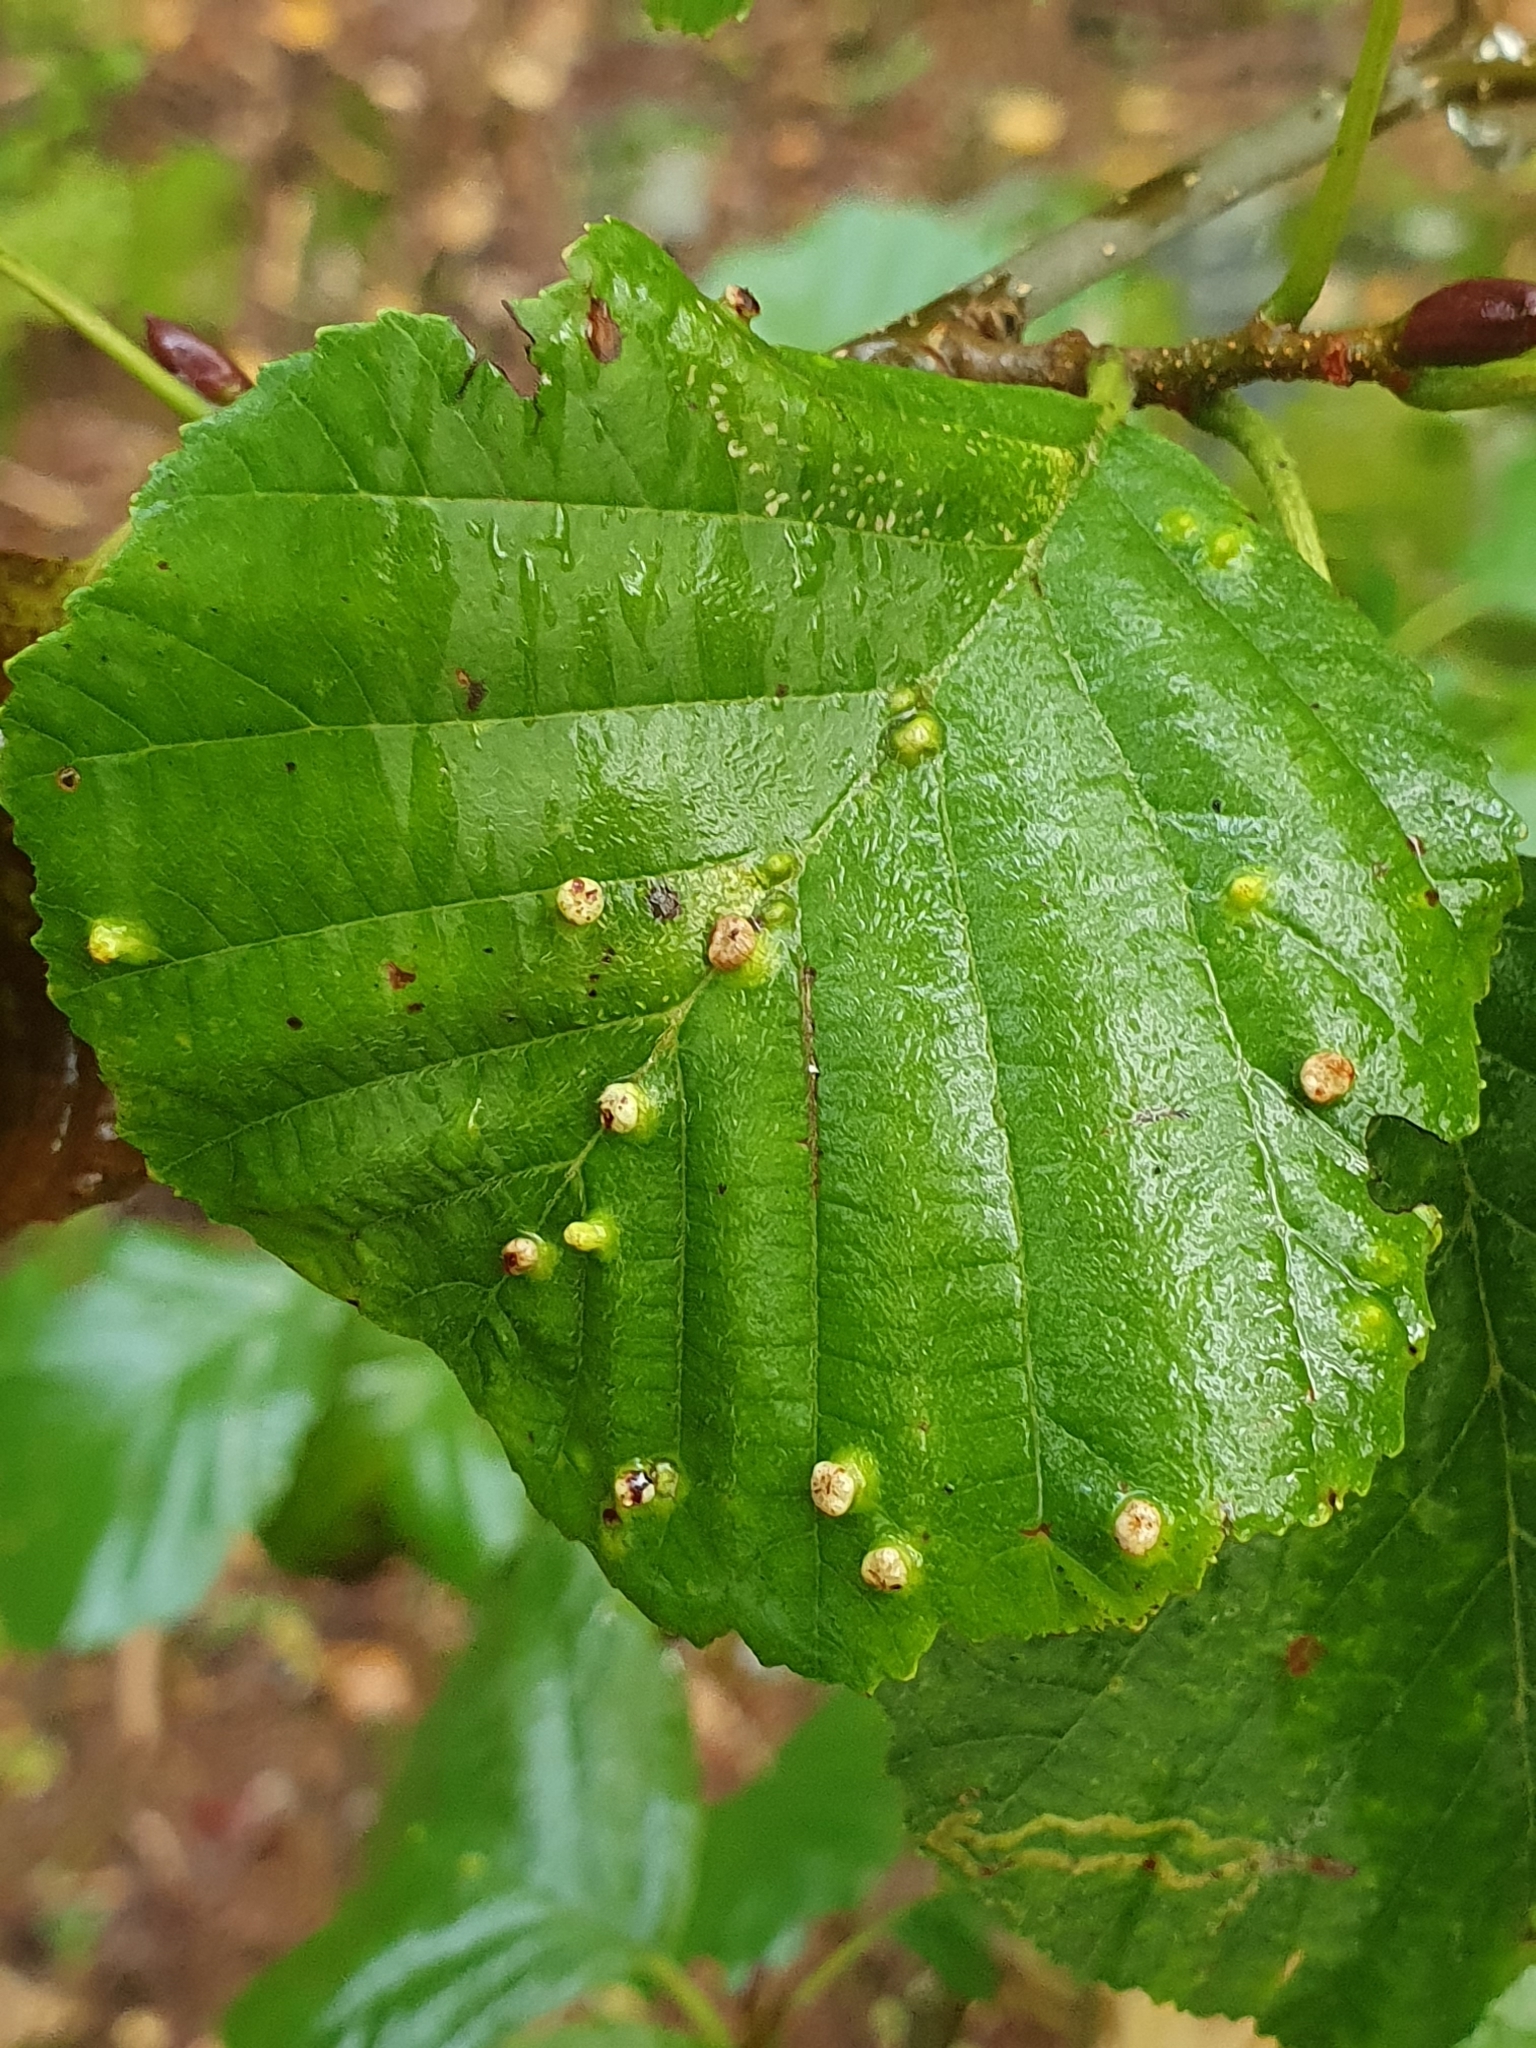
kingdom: Animalia
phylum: Arthropoda
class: Arachnida
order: Trombidiformes
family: Eriophyidae
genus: Eriophyes
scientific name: Eriophyes laevis
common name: Alder leaf gall mite
